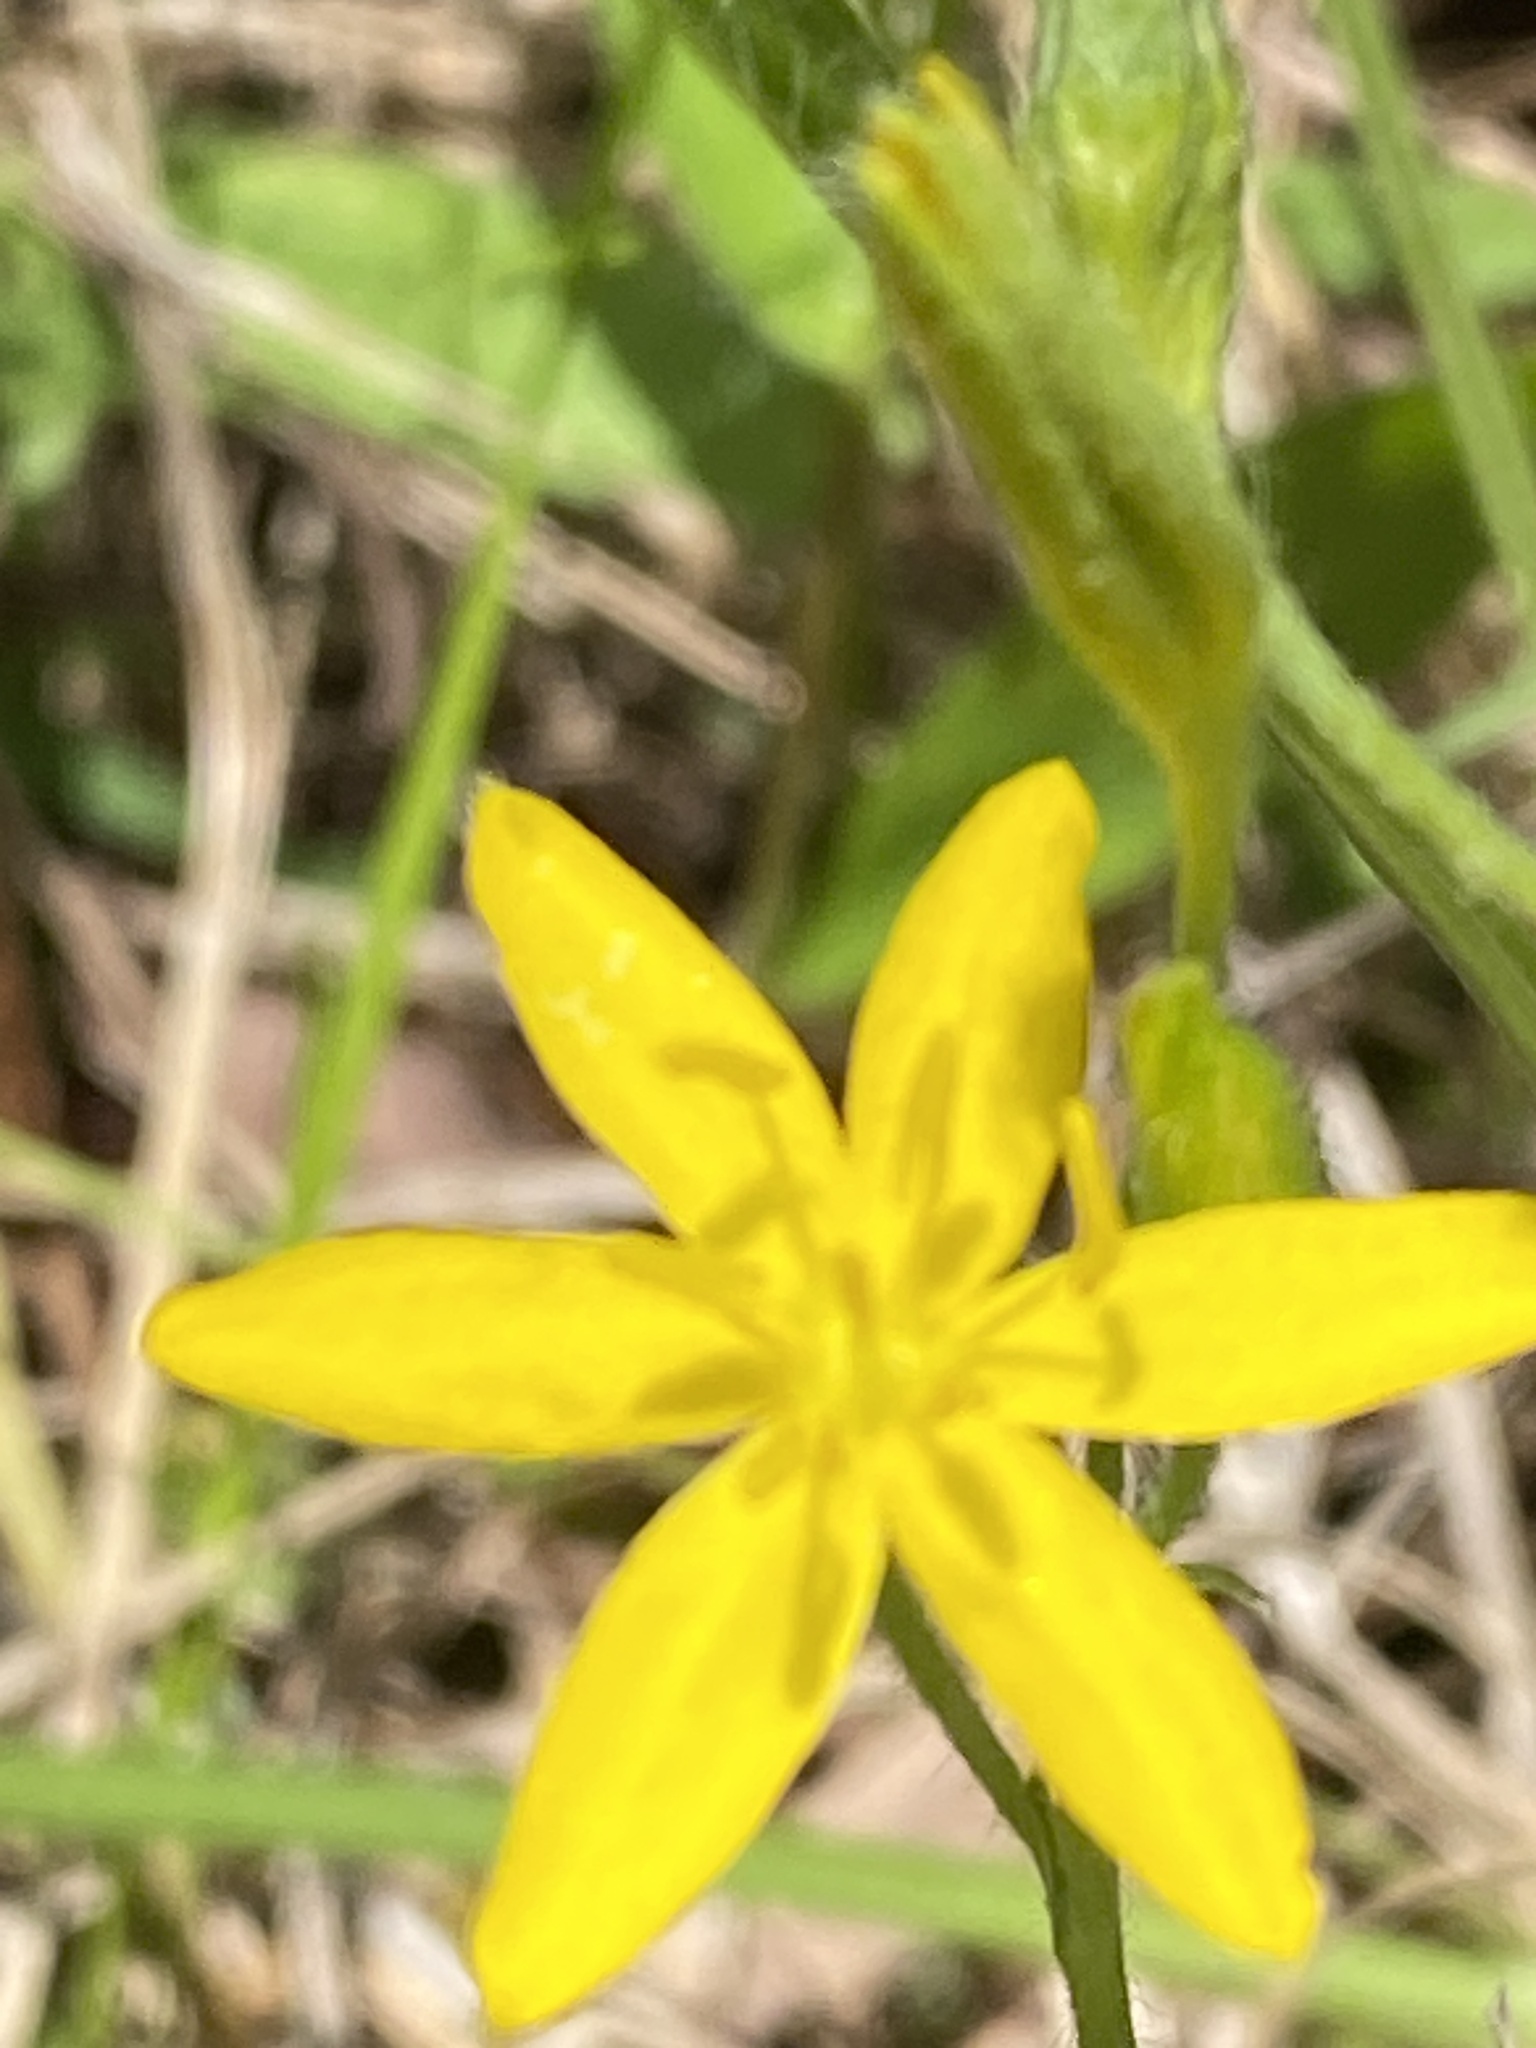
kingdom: Plantae
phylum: Tracheophyta
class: Liliopsida
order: Asparagales
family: Hypoxidaceae
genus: Hypoxis
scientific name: Hypoxis hirsuta
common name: Common goldstar
